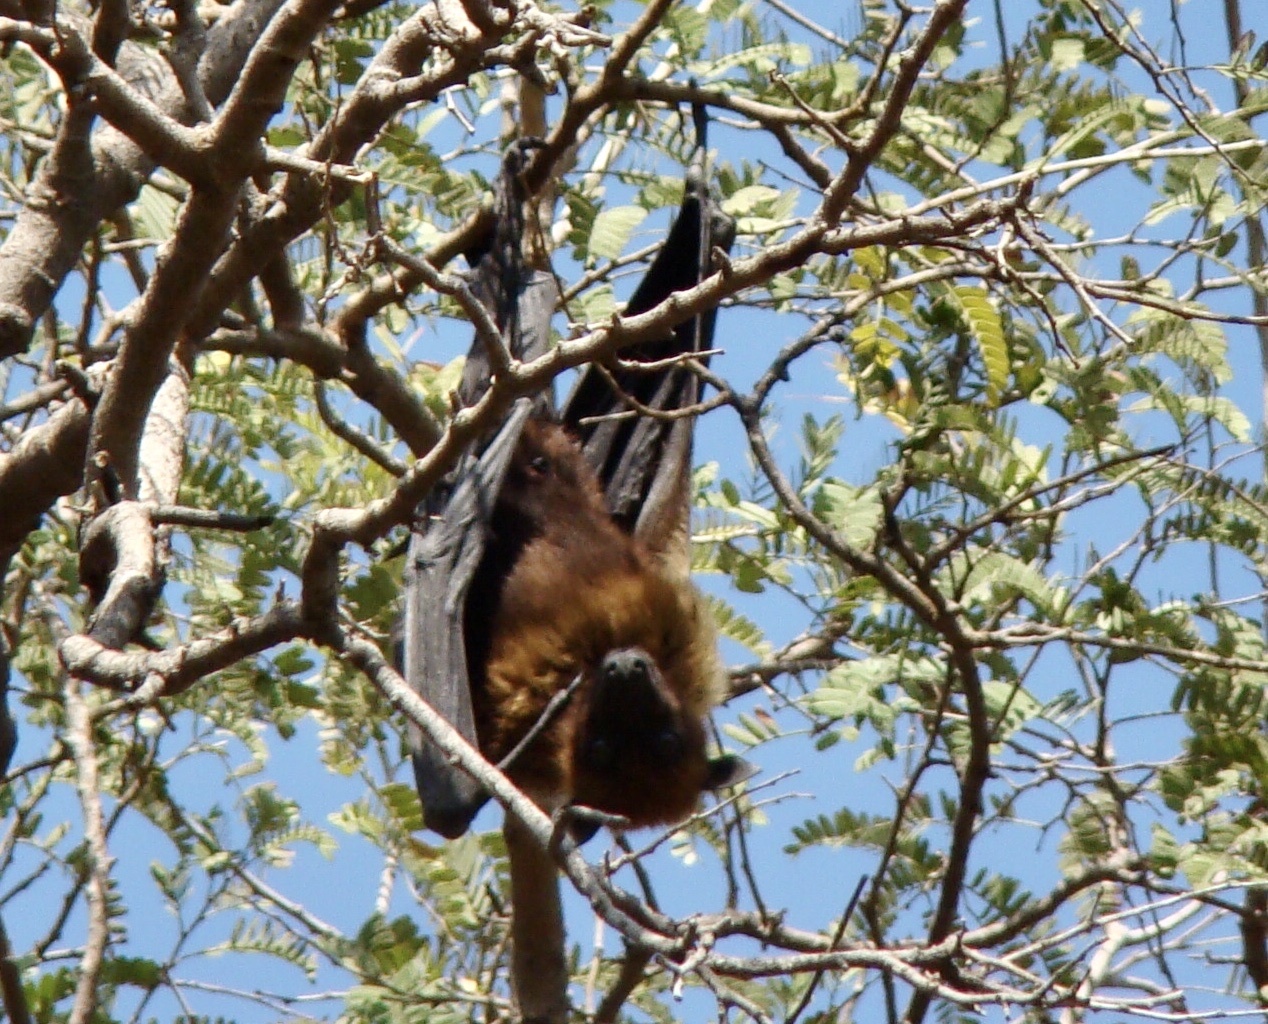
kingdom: Animalia
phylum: Chordata
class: Mammalia
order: Chiroptera
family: Pteropodidae
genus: Pteropus
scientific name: Pteropus vampyrus
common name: Large flying fox
